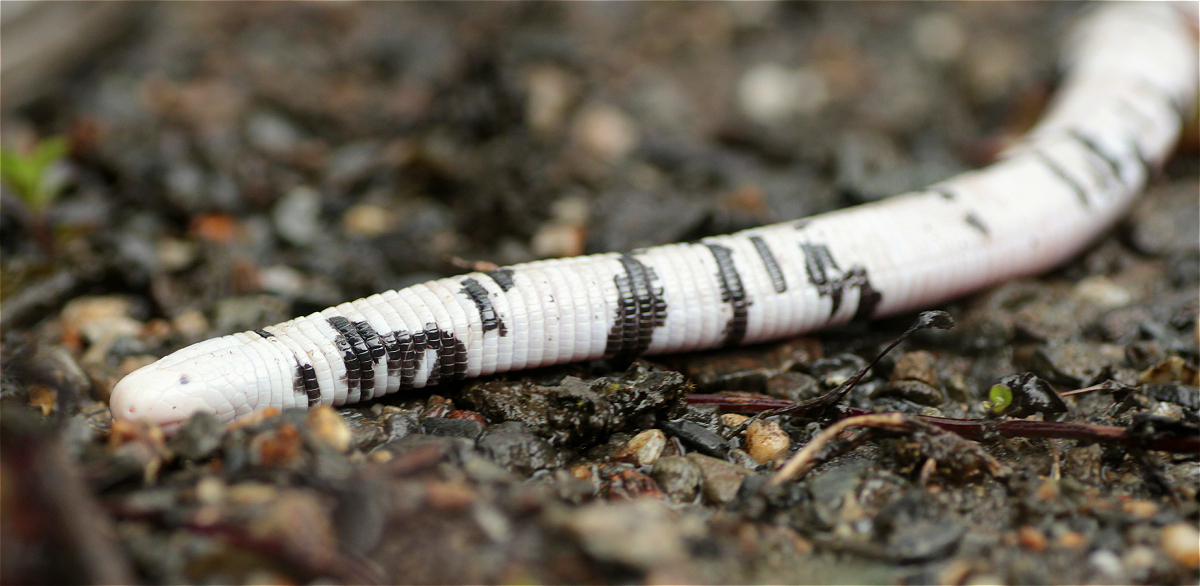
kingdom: Animalia
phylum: Chordata
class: Squamata
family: Amphisbaenidae
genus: Amphisbaena
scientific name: Amphisbaena fuliginosa
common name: Speckled worm lizard
